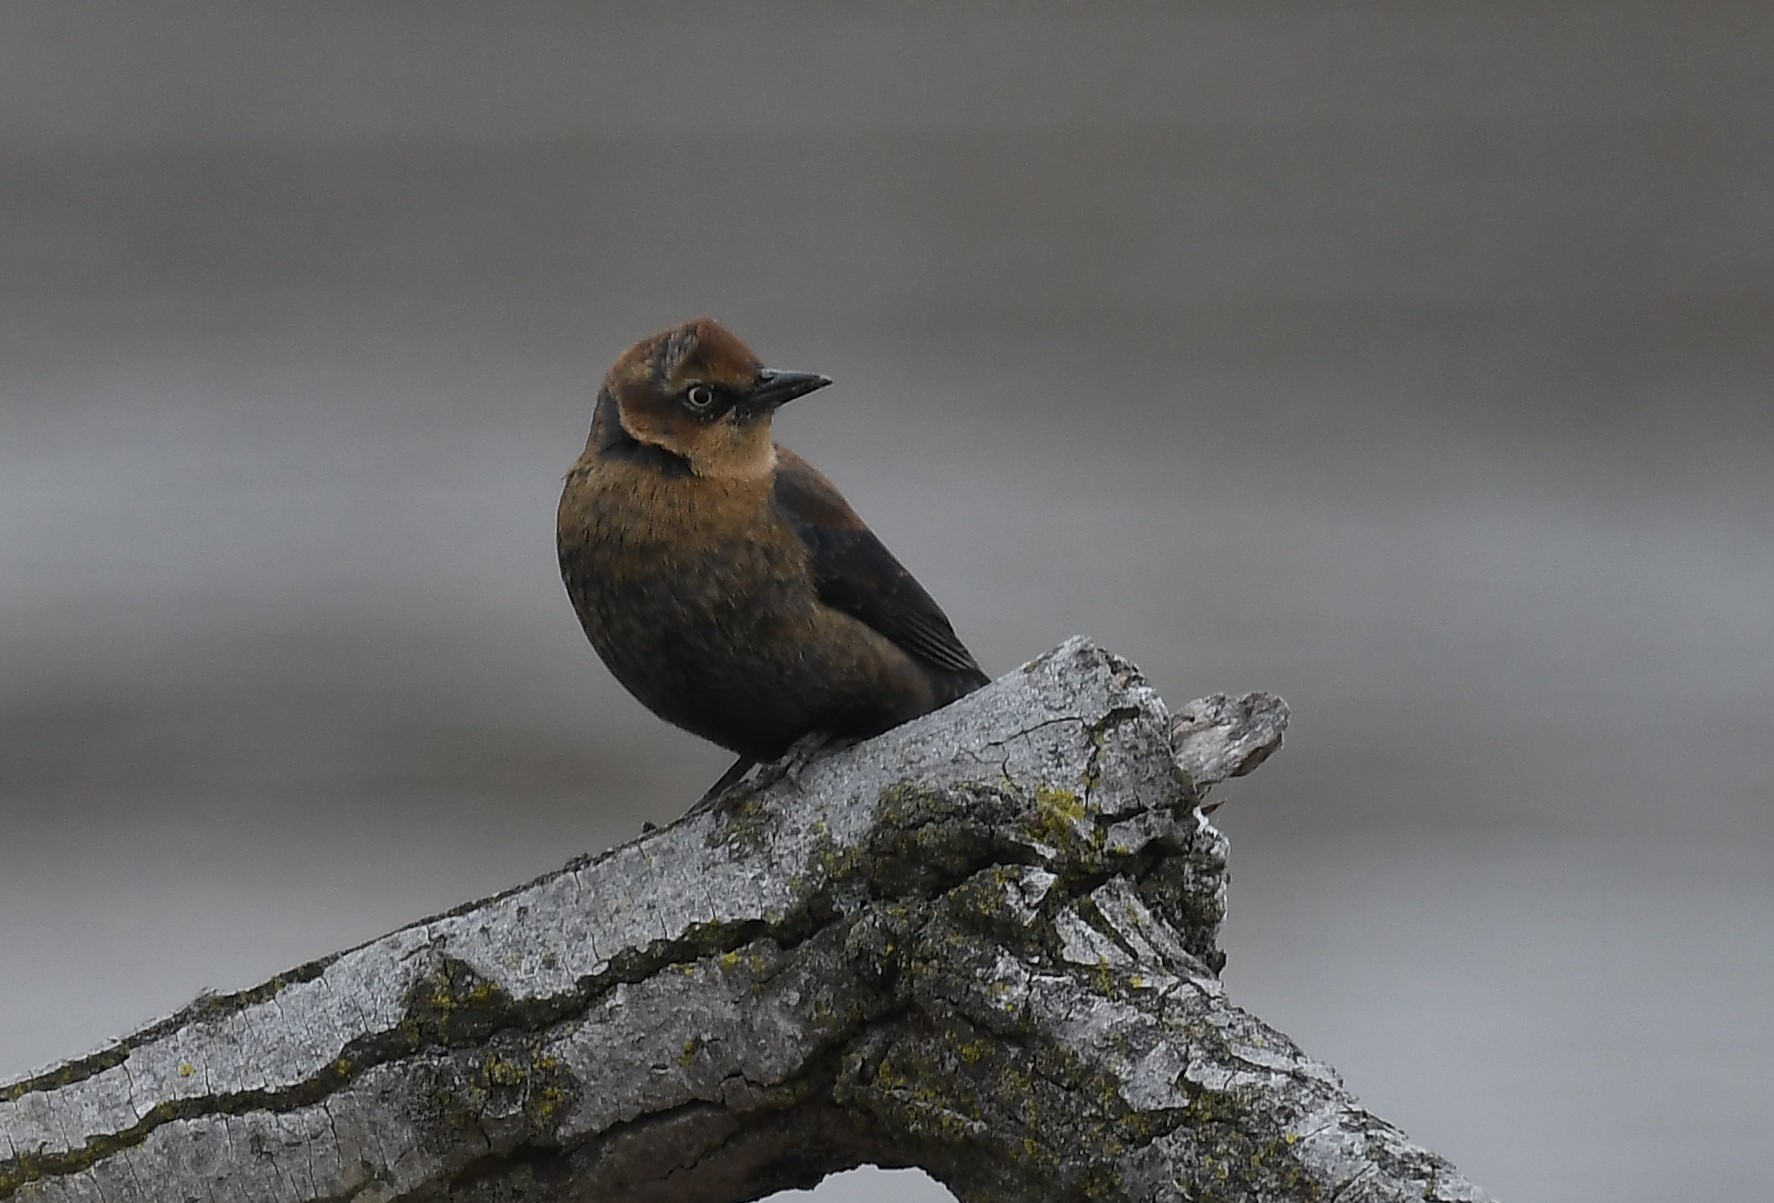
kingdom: Animalia
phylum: Chordata
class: Aves
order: Passeriformes
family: Icteridae
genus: Euphagus
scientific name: Euphagus carolinus
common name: Rusty blackbird
